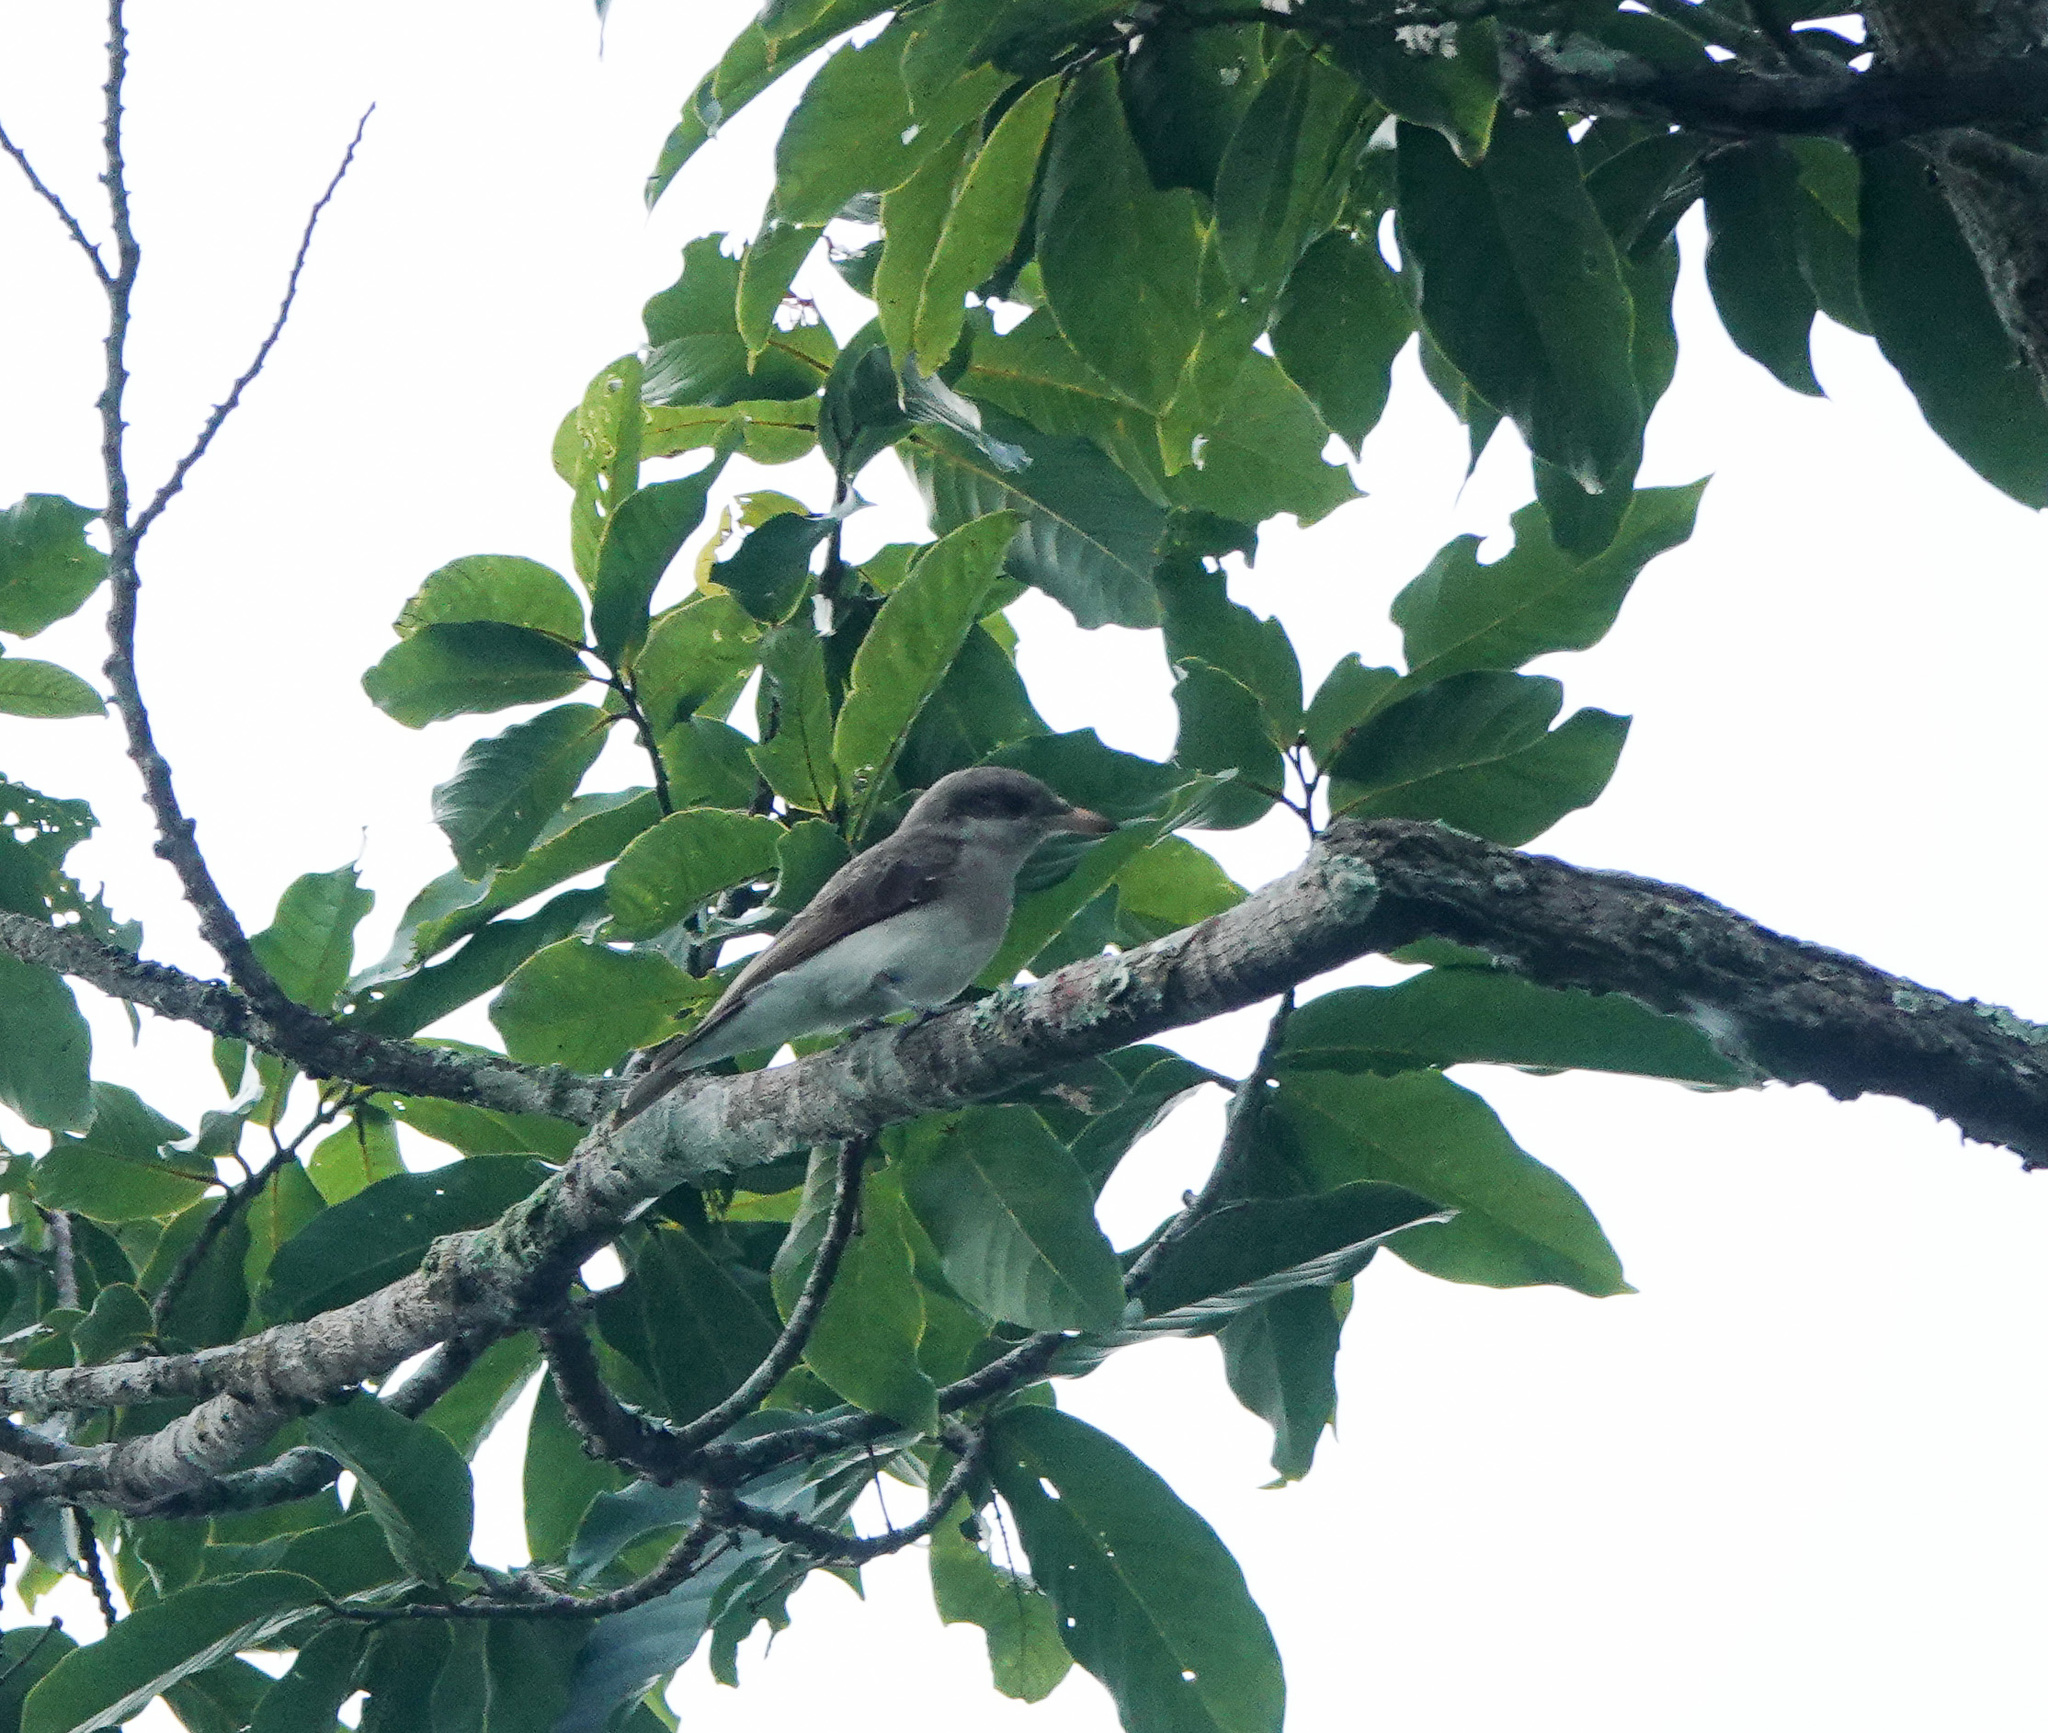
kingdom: Animalia
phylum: Chordata
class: Aves
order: Passeriformes
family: Tephrodornithidae
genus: Tephrodornis
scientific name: Tephrodornis virgatus
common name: Large woodshrike
